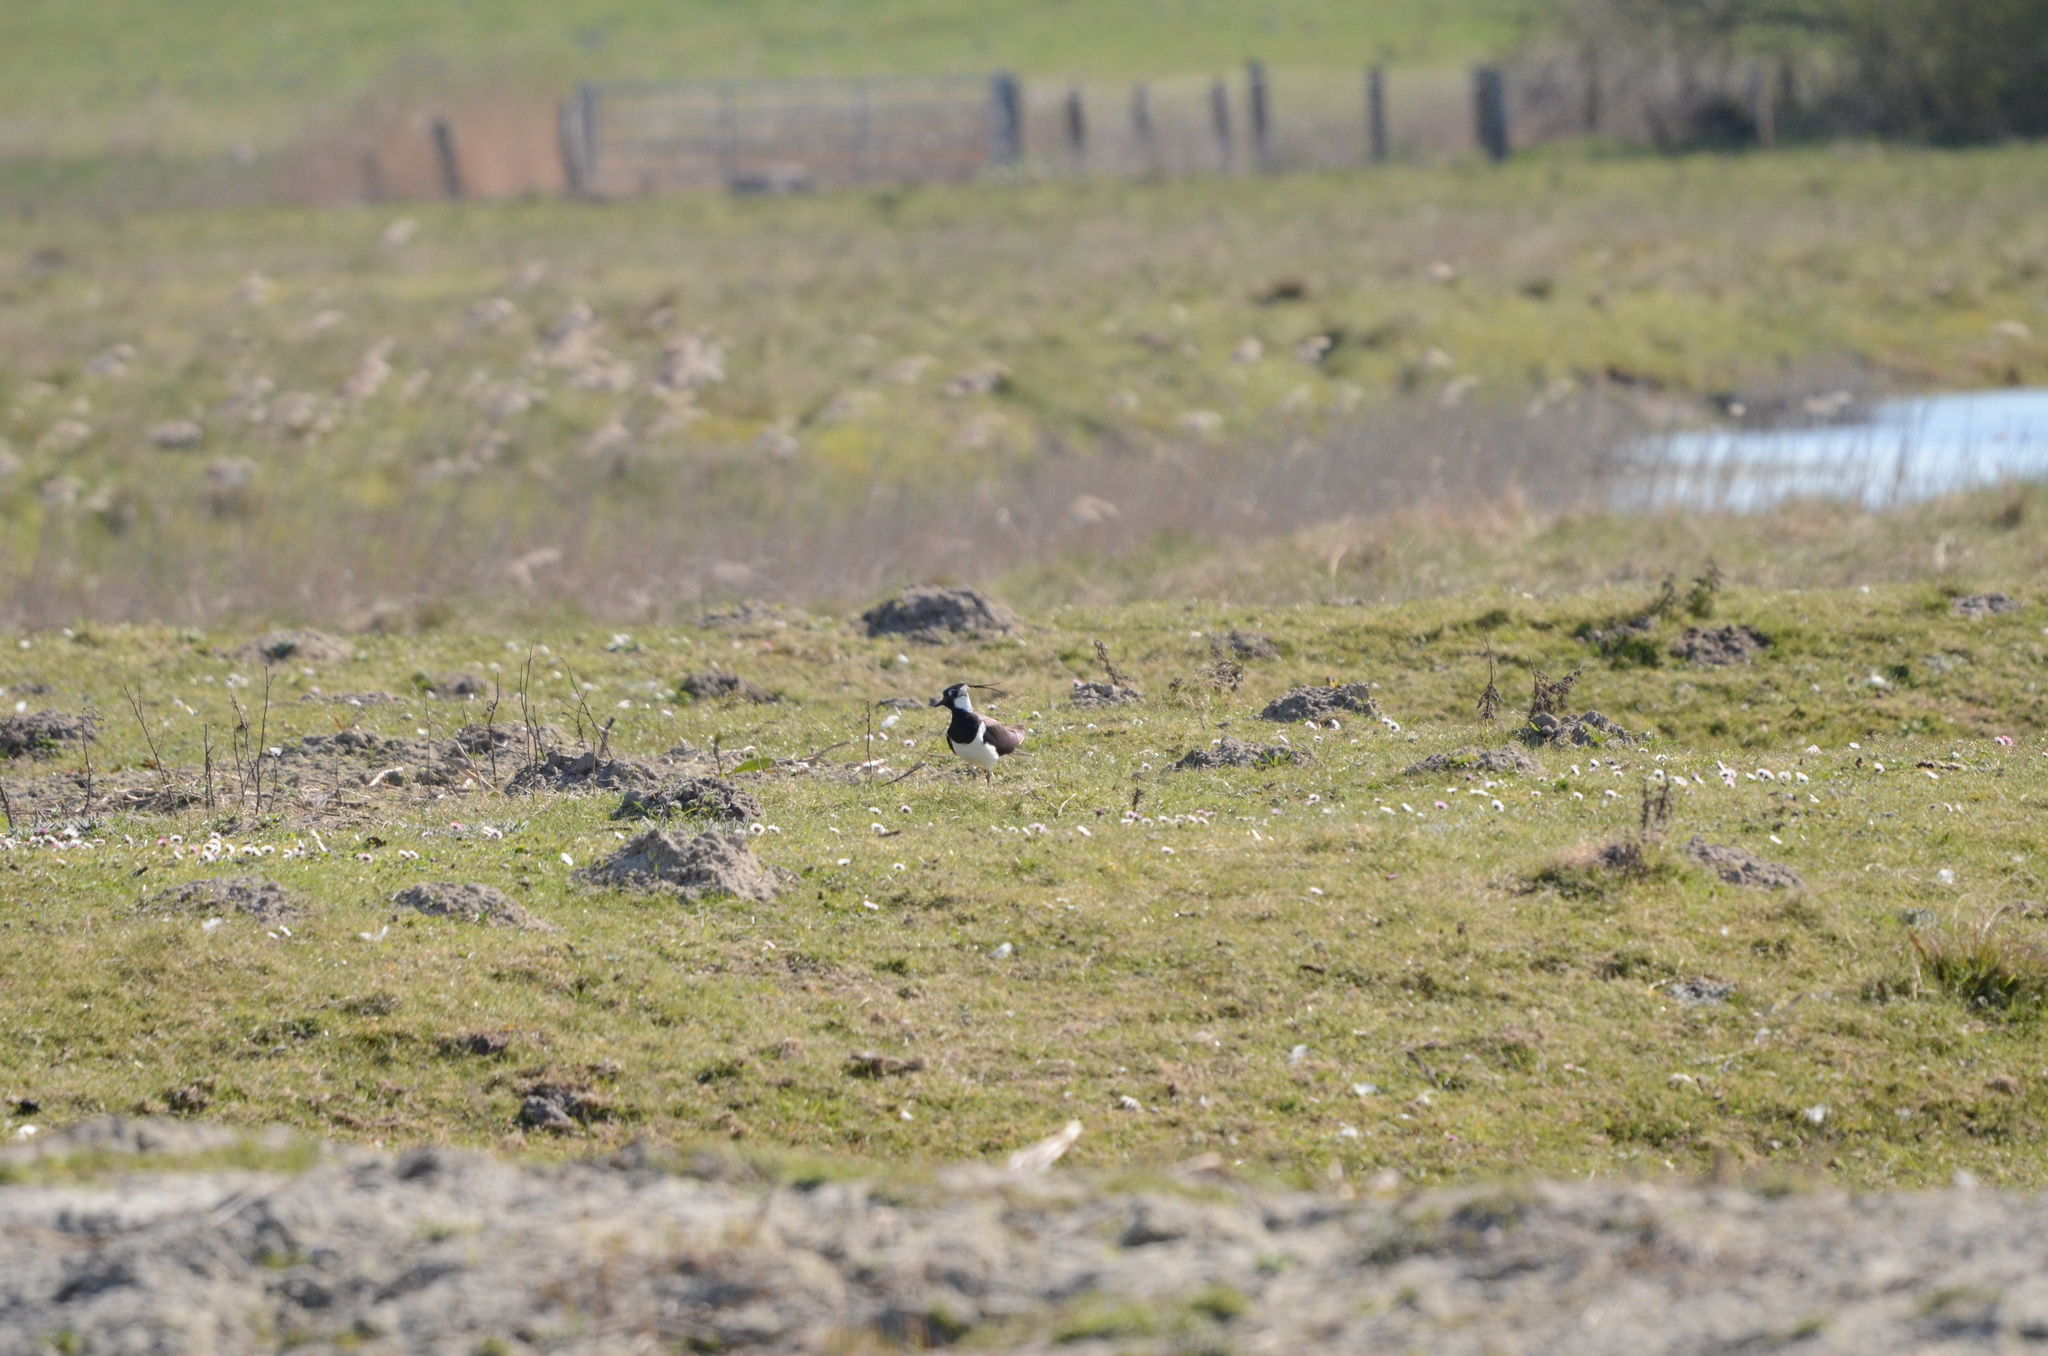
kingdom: Animalia
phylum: Chordata
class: Aves
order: Charadriiformes
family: Charadriidae
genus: Vanellus
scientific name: Vanellus vanellus
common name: Northern lapwing
